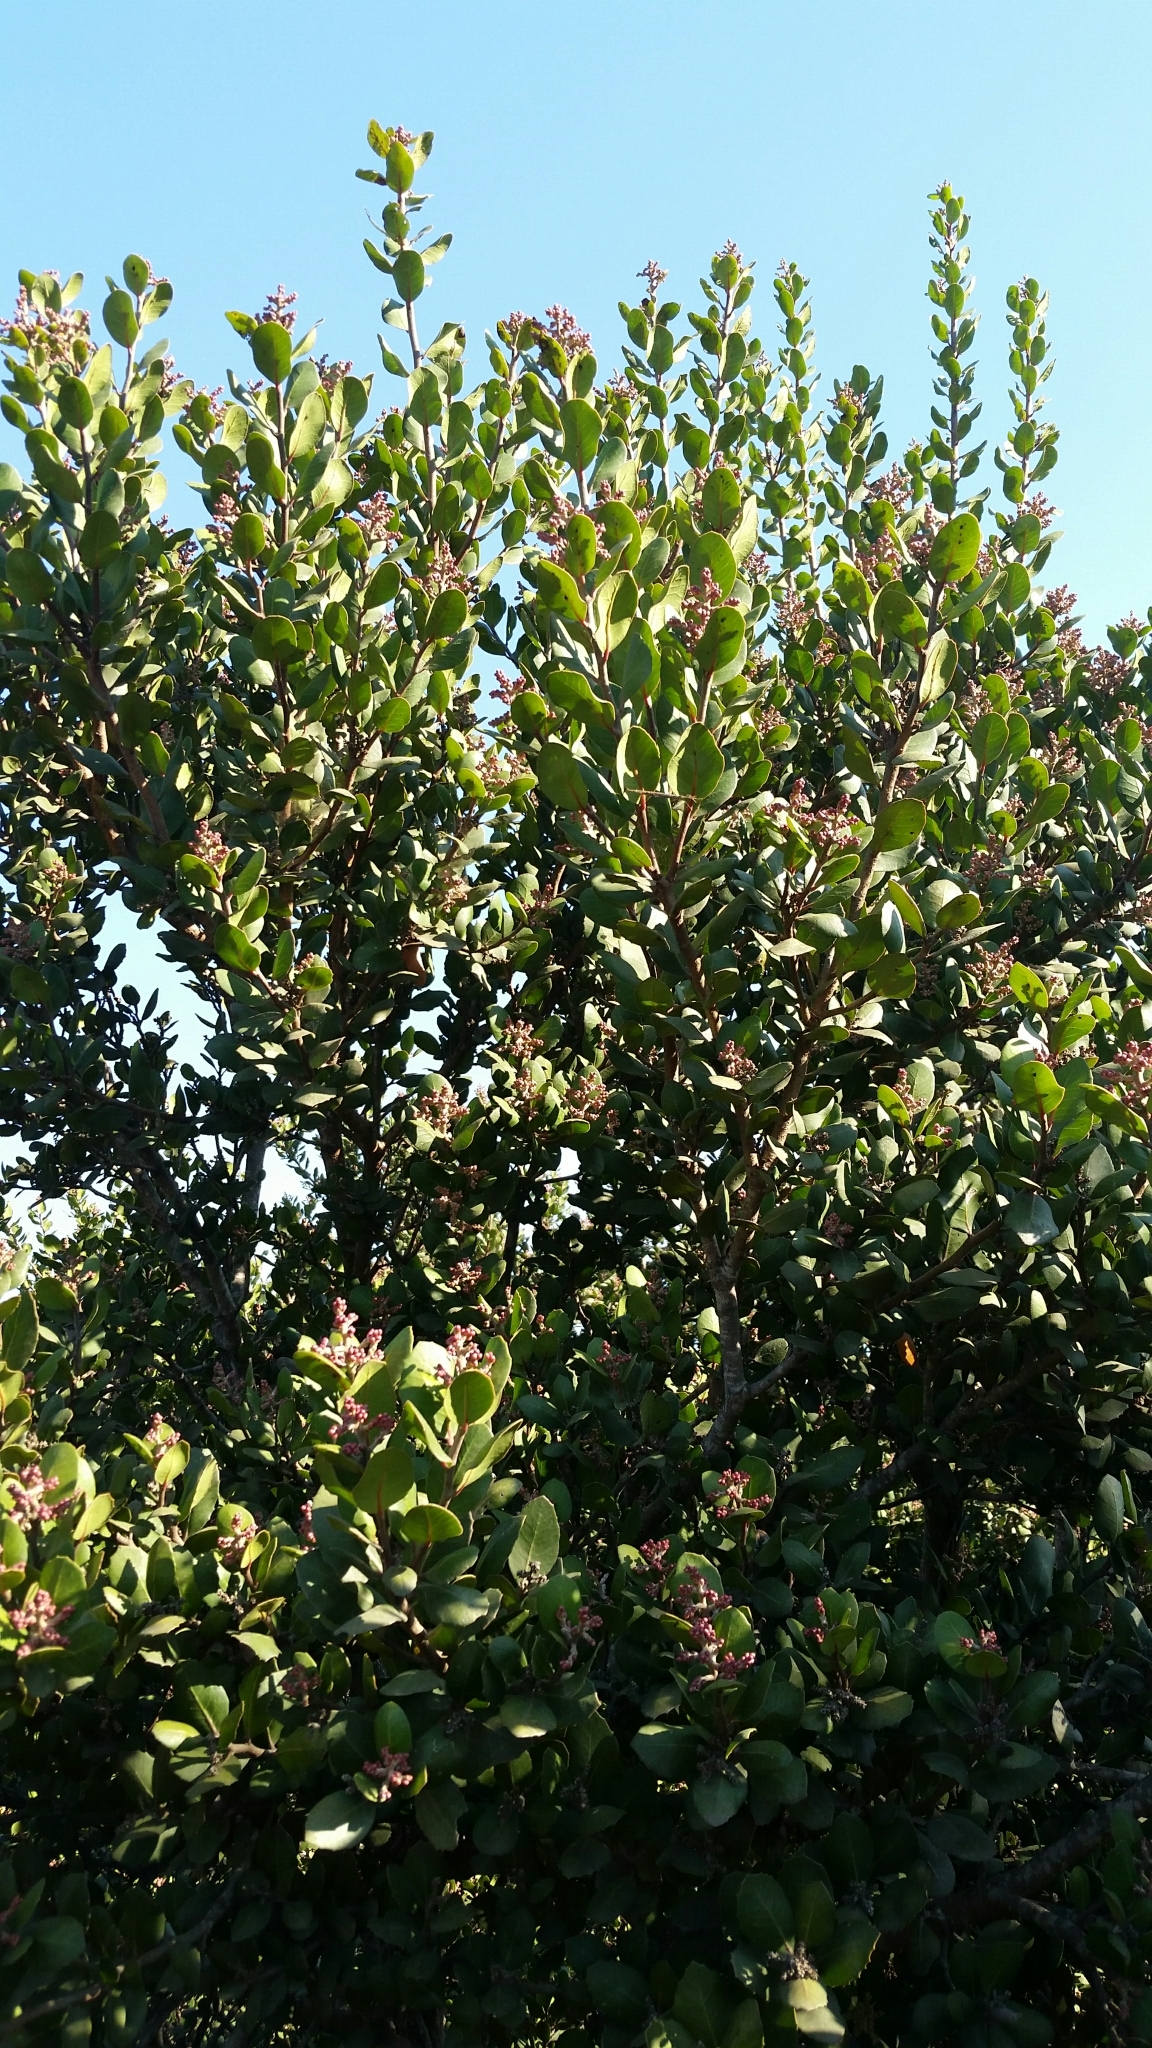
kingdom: Plantae
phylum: Tracheophyta
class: Magnoliopsida
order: Sapindales
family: Anacardiaceae
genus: Rhus
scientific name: Rhus integrifolia
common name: Lemonade sumac
